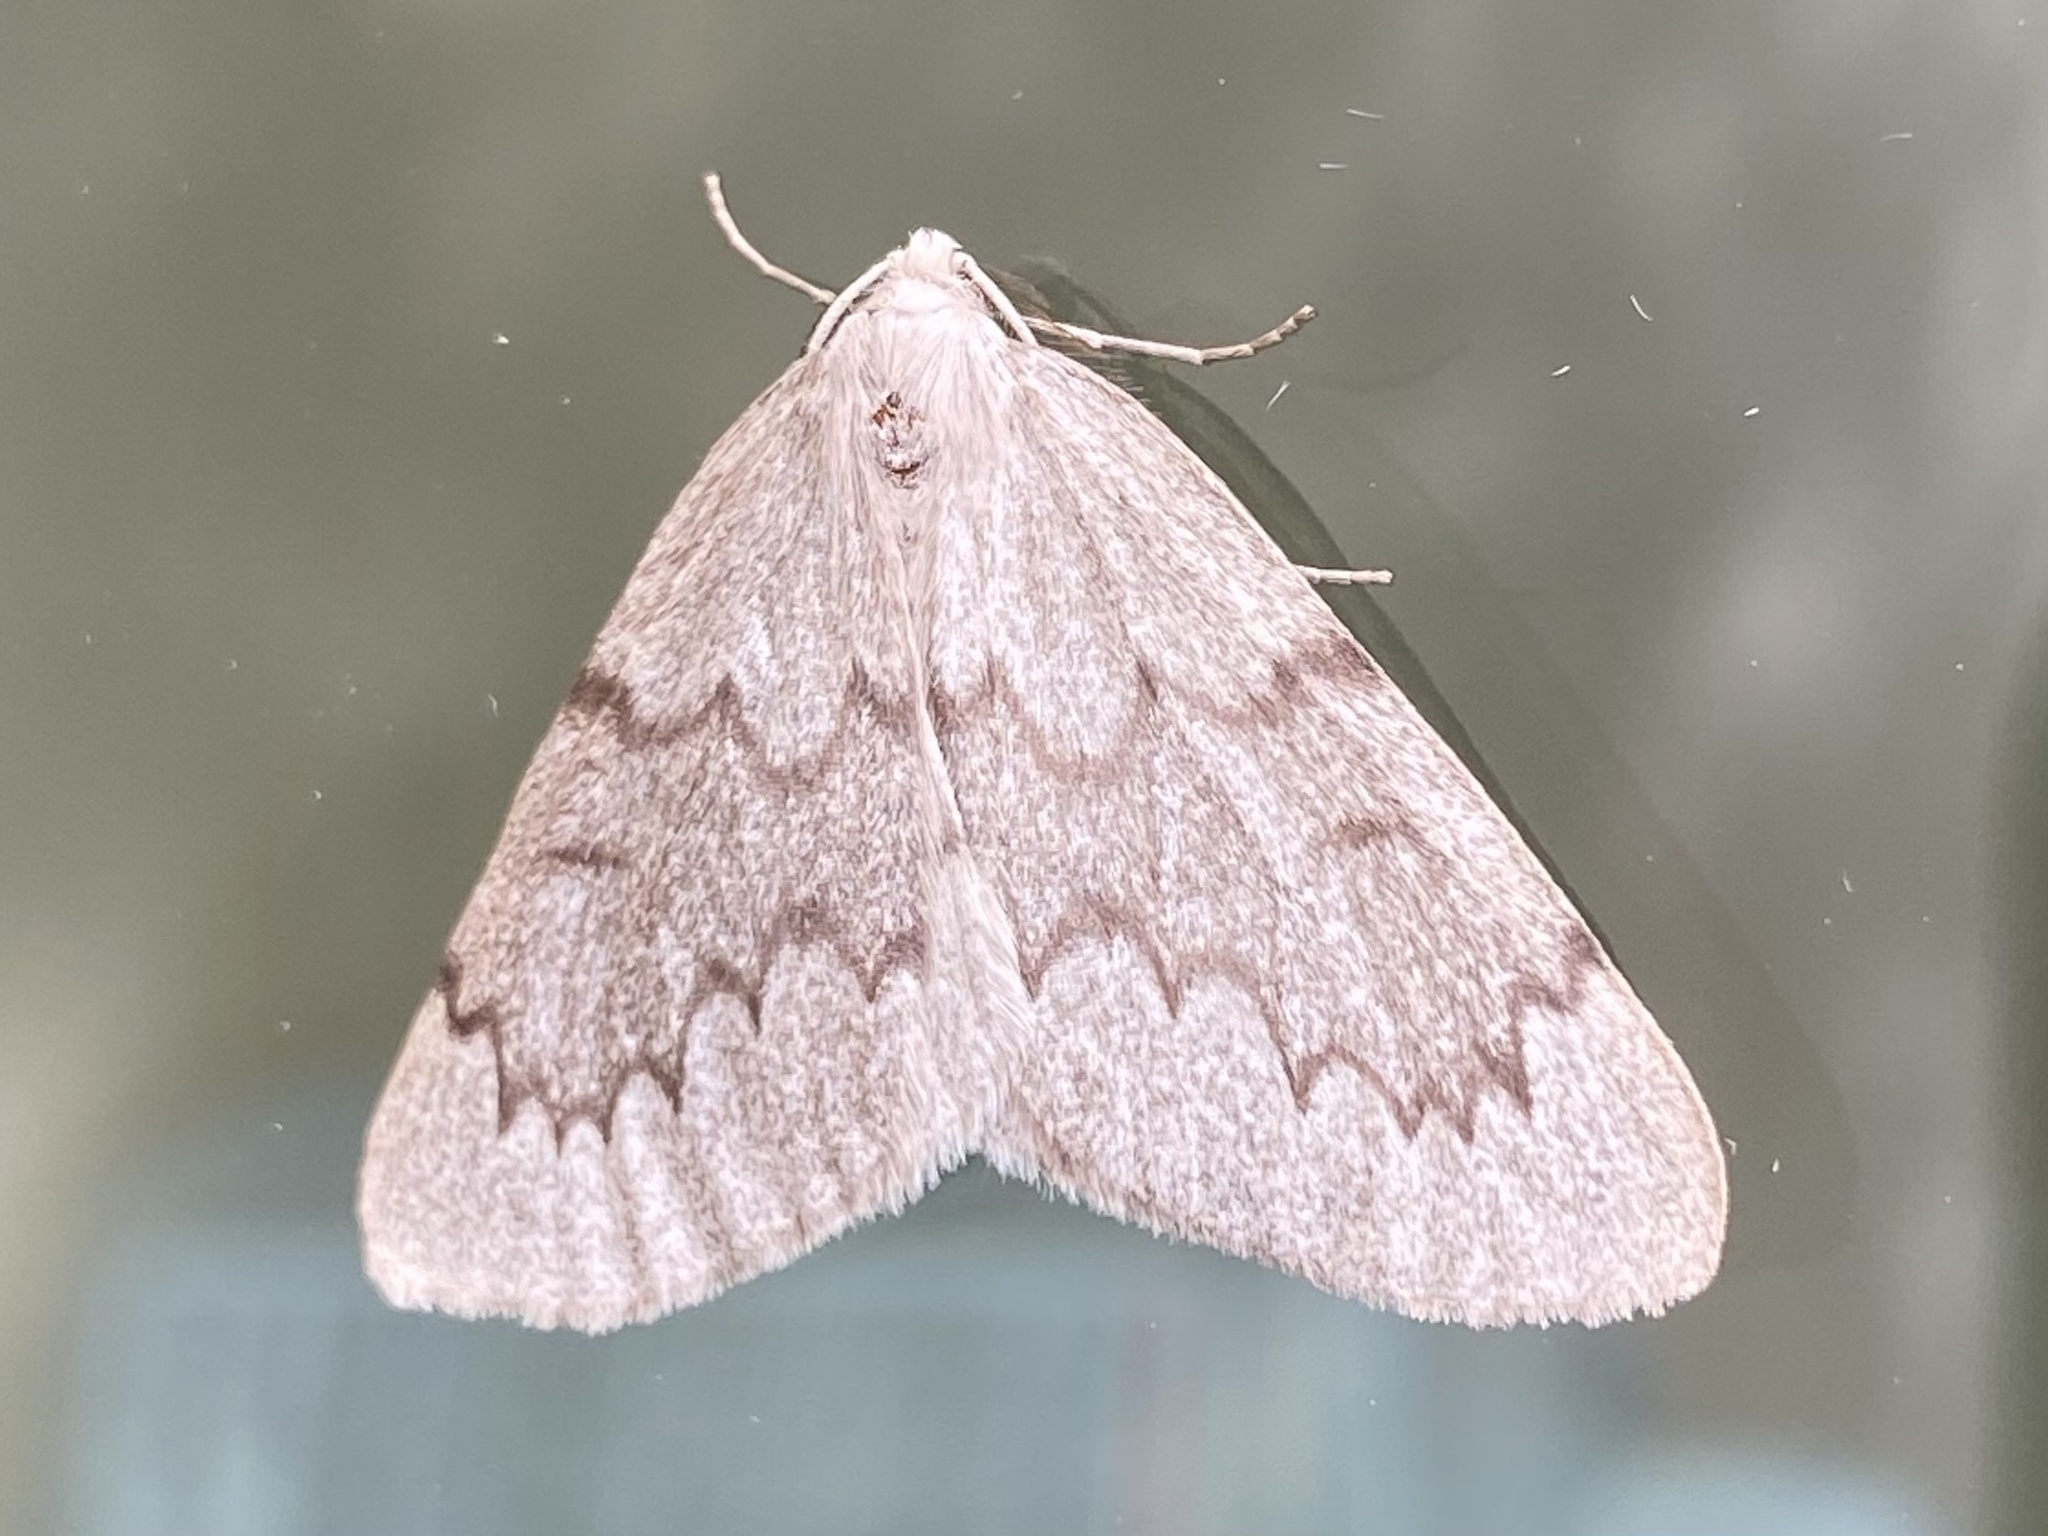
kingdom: Animalia
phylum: Arthropoda
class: Insecta
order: Lepidoptera
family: Geometridae
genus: Nepytia
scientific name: Nepytia pellucidaria
